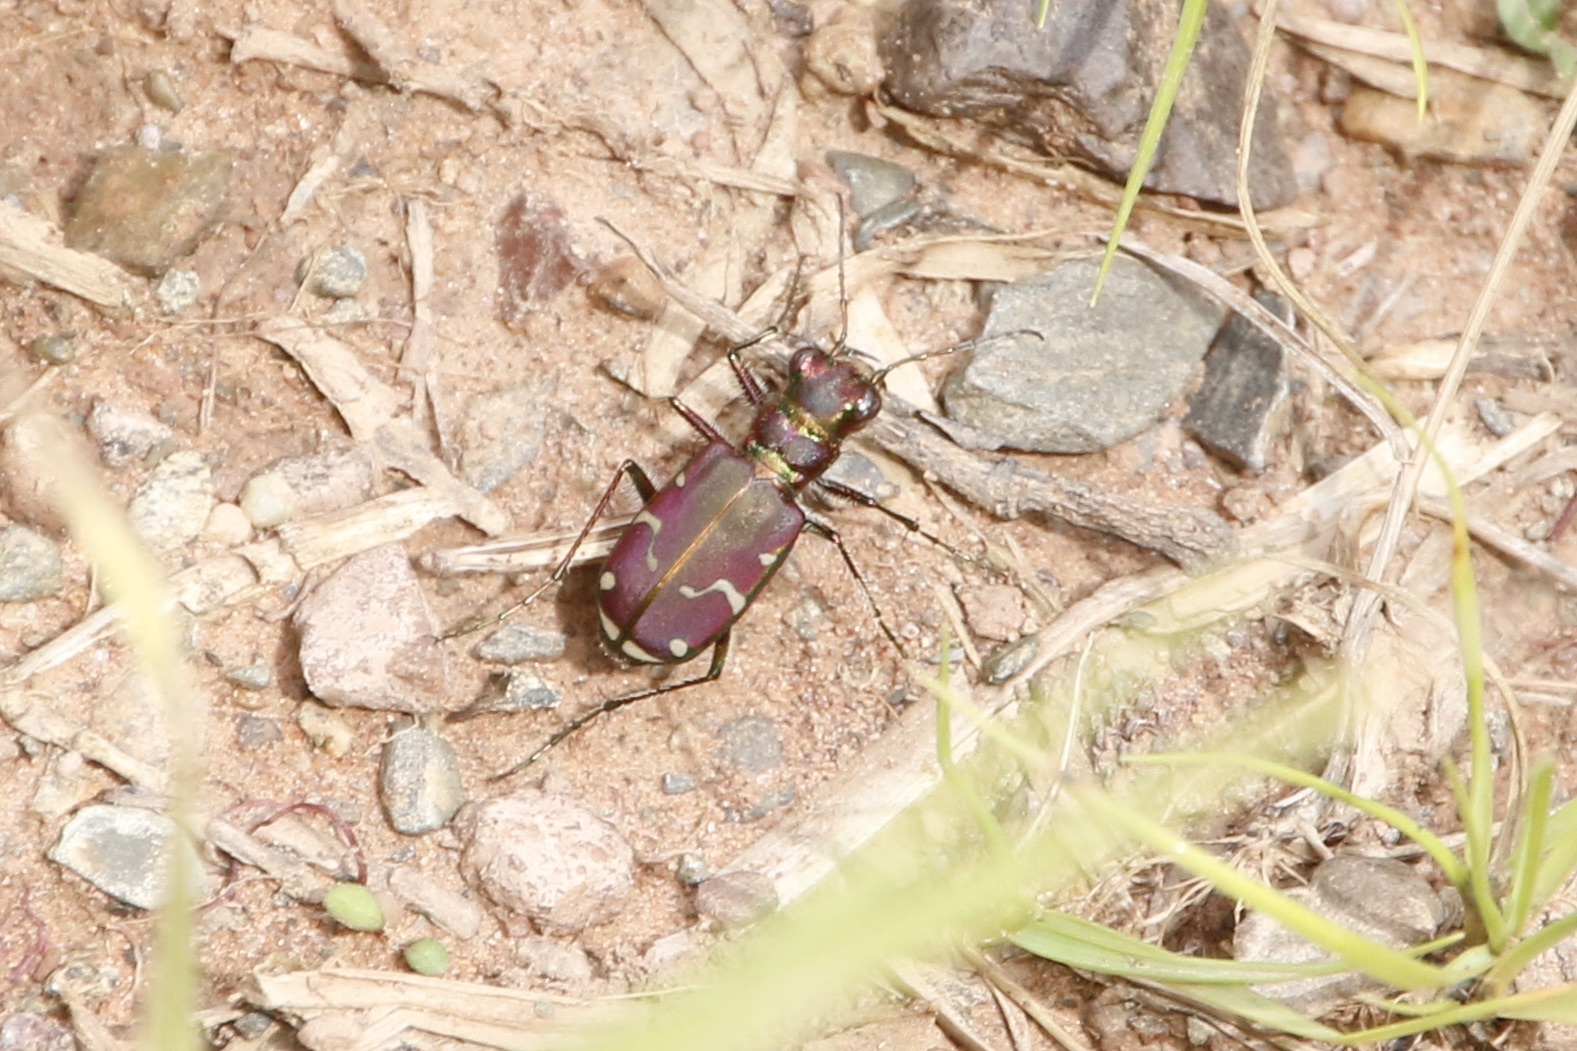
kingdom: Animalia
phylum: Arthropoda
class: Insecta
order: Coleoptera
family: Carabidae
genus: Cicindela
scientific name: Cicindela limbalis
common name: Common claybank tiger beetle
